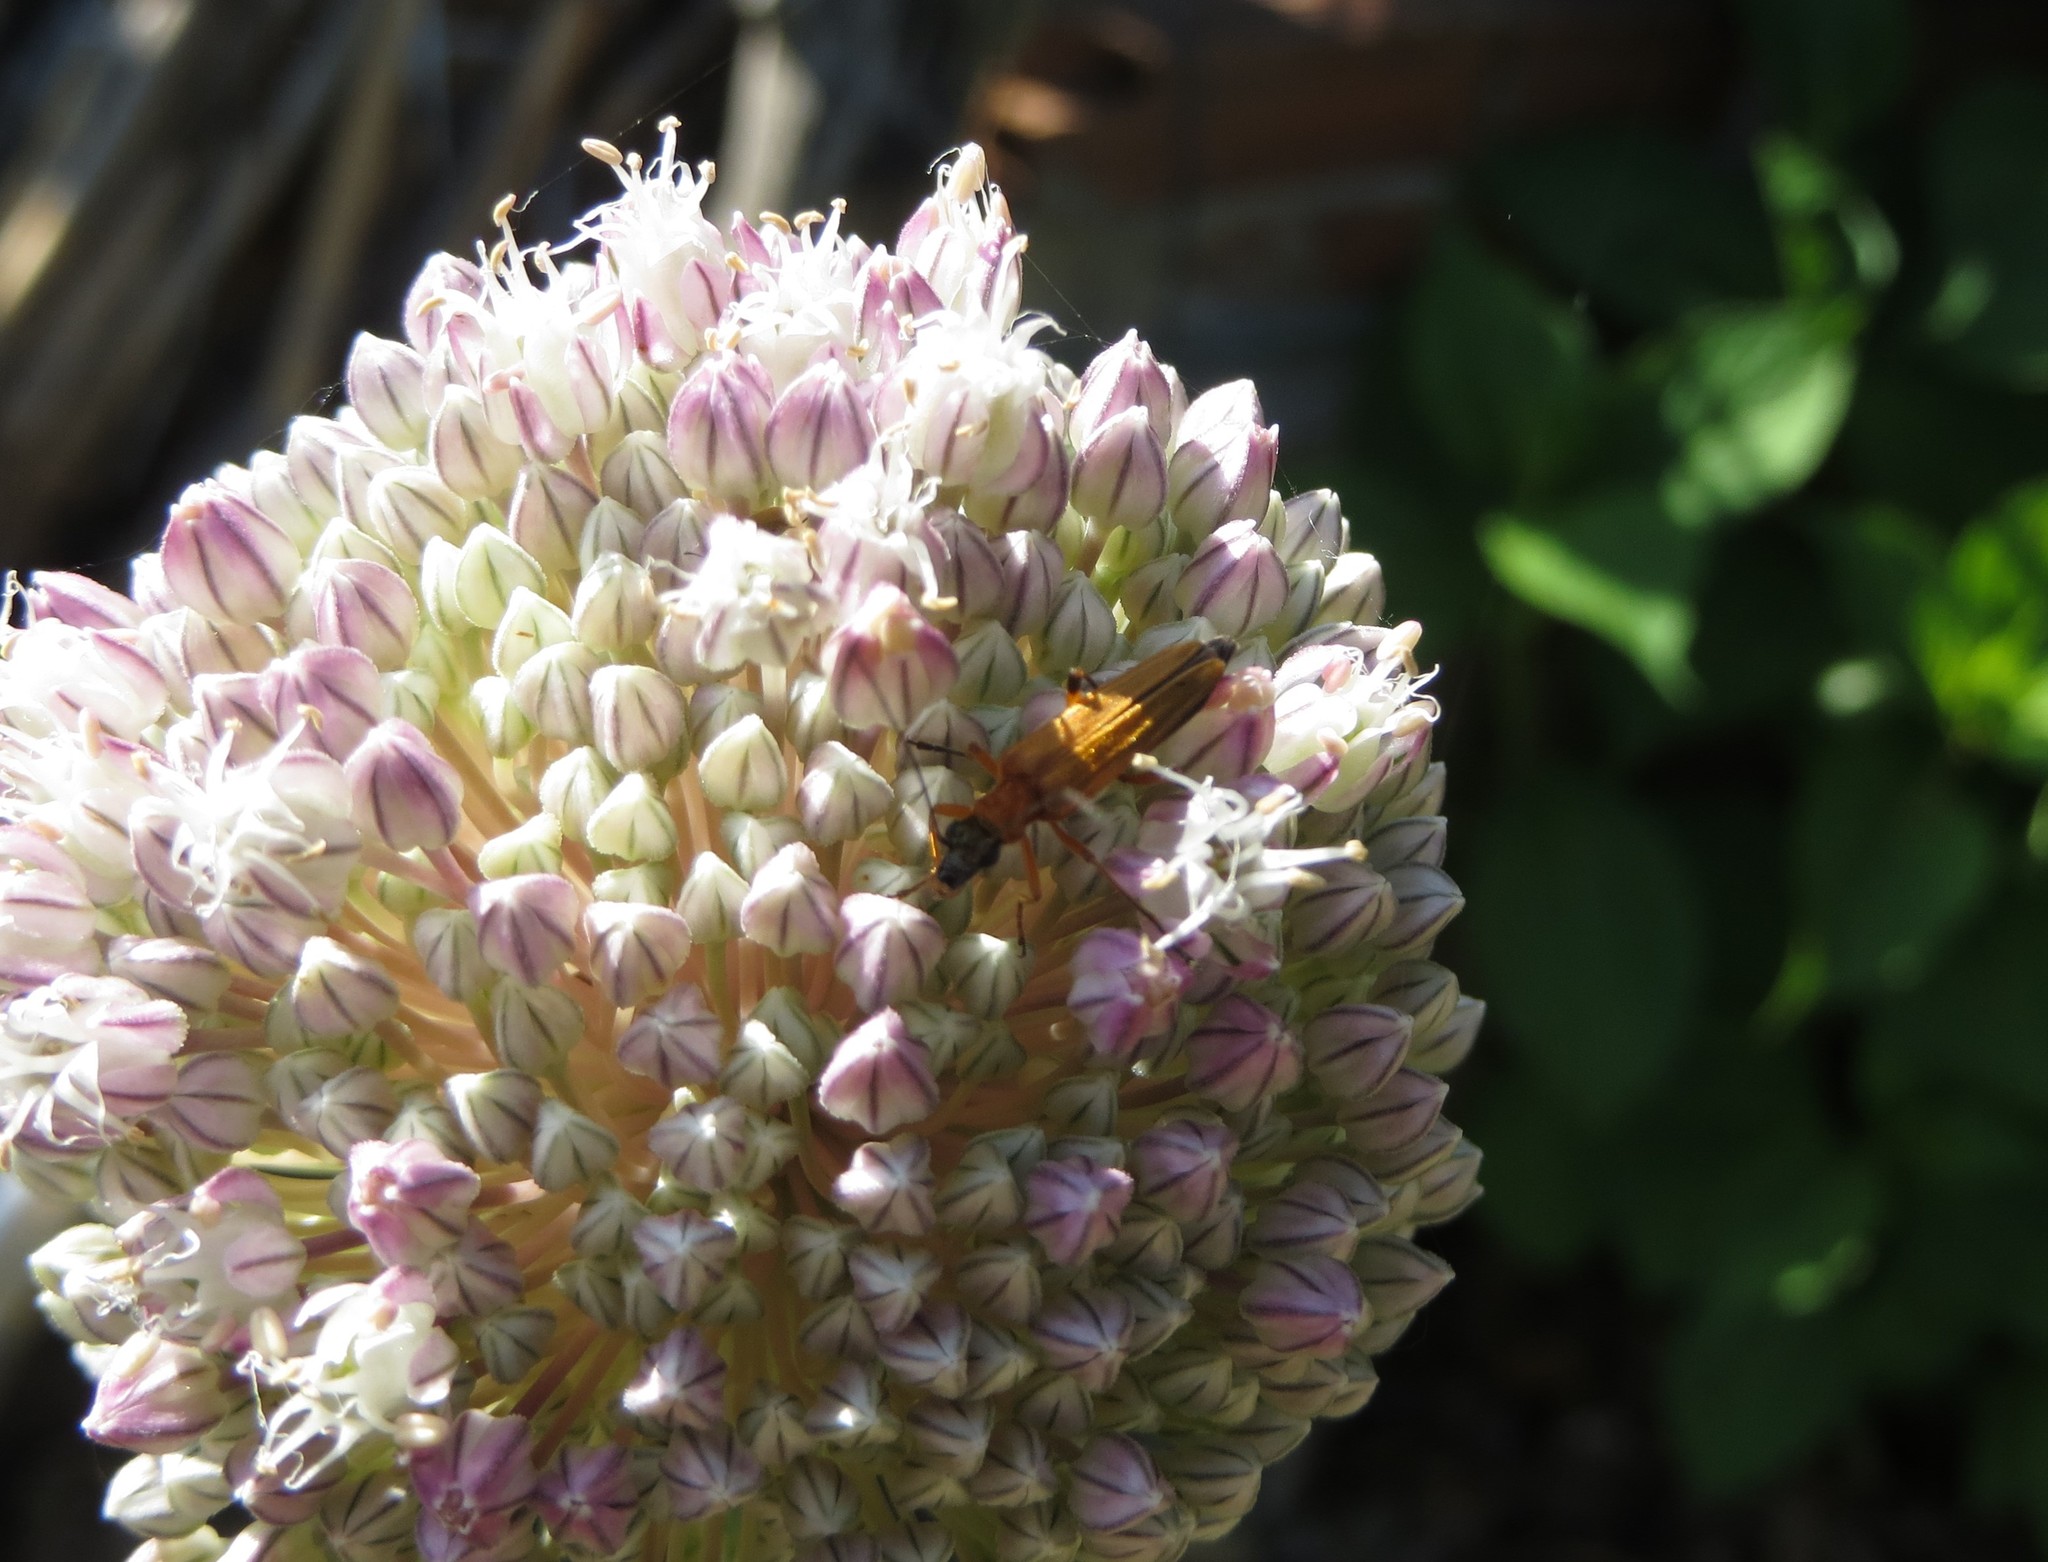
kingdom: Animalia
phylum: Arthropoda
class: Insecta
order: Coleoptera
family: Oedemeridae
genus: Oedemera
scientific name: Oedemera podagrariae
